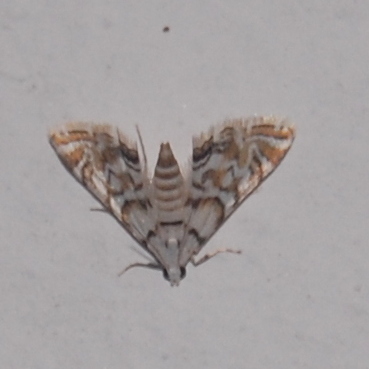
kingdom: Animalia
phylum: Arthropoda
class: Insecta
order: Lepidoptera
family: Crambidae
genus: Argyractis
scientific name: Argyractis subornata
